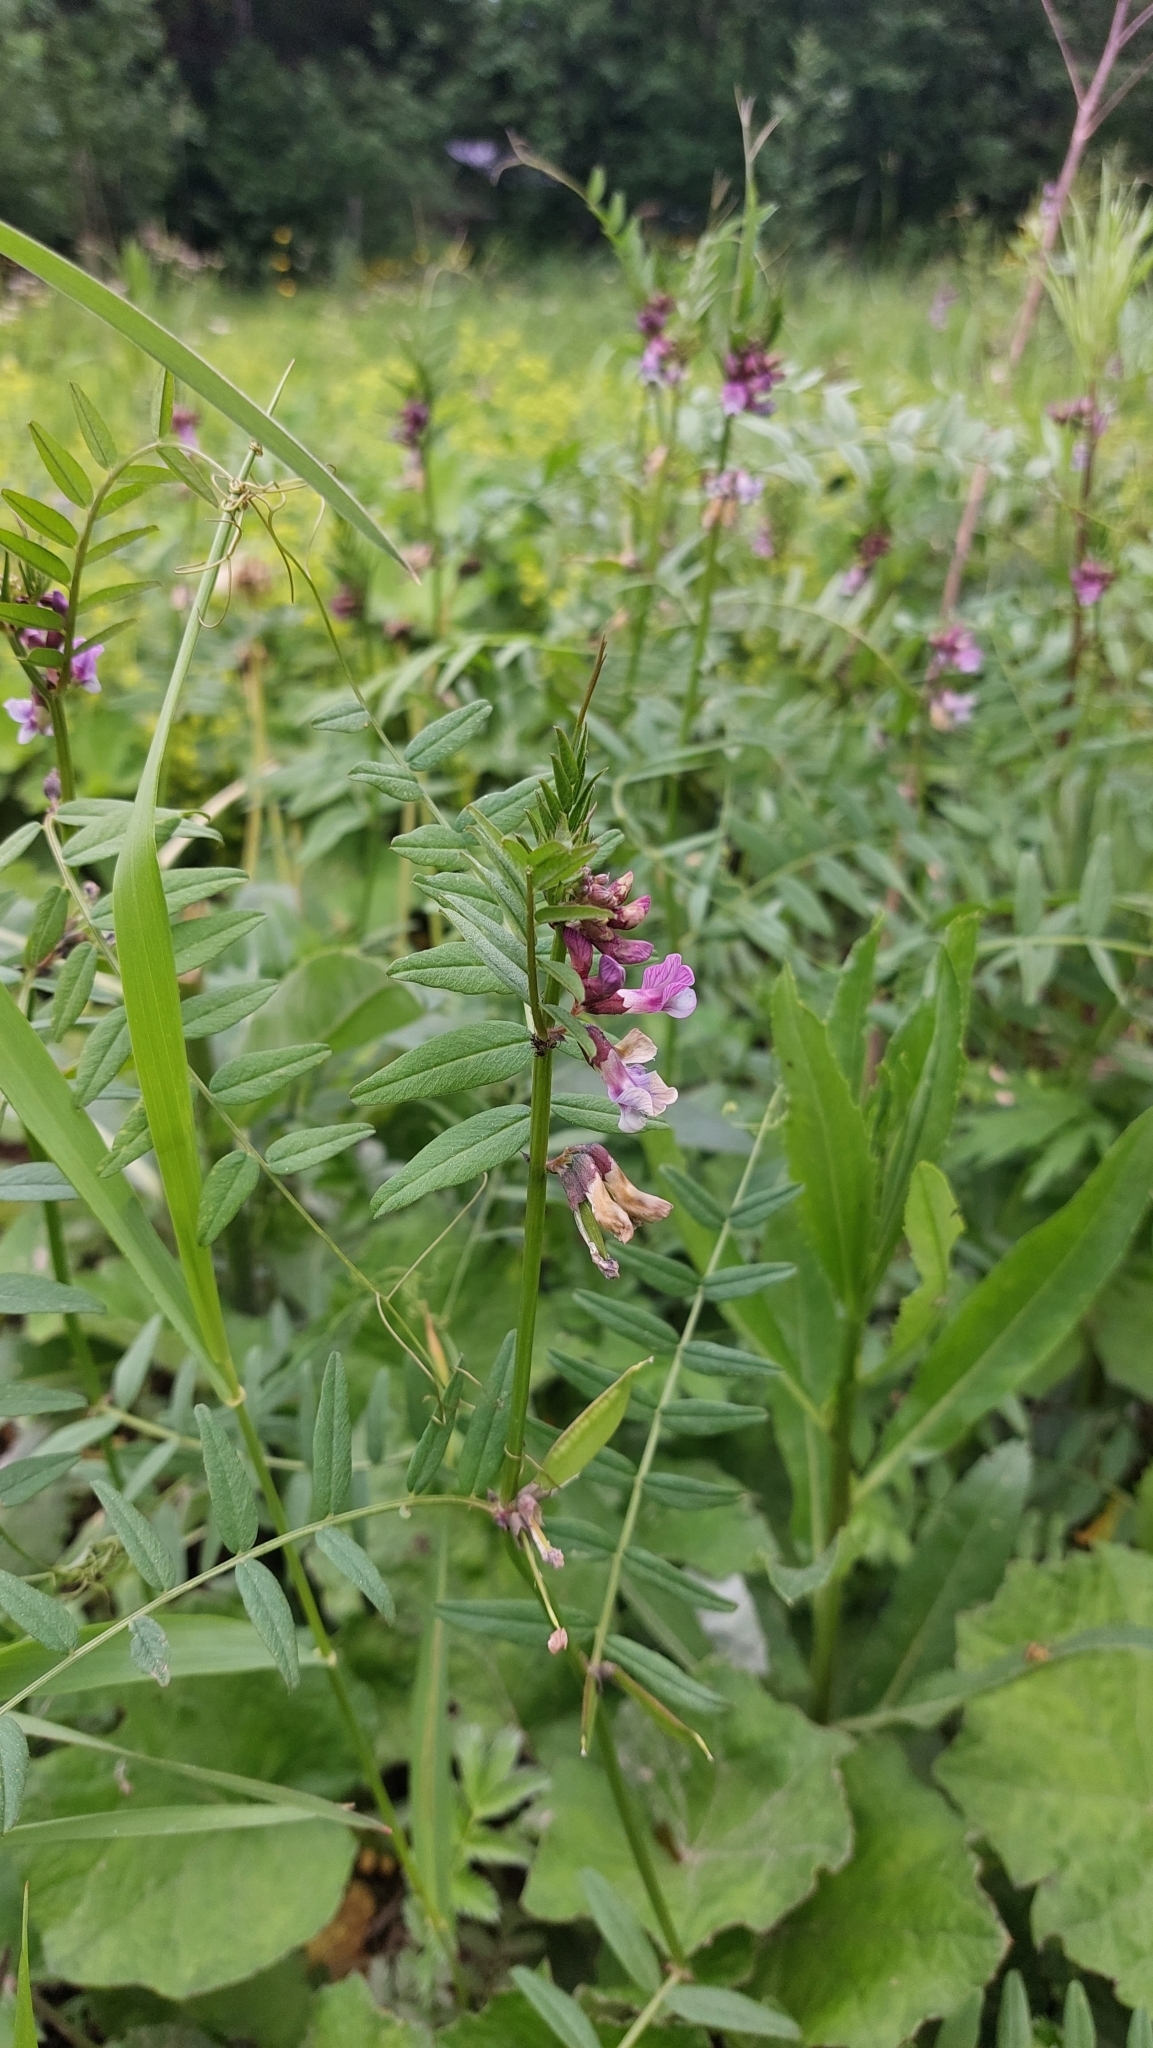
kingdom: Plantae
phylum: Tracheophyta
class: Magnoliopsida
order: Fabales
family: Fabaceae
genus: Vicia
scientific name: Vicia sepium
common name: Bush vetch
